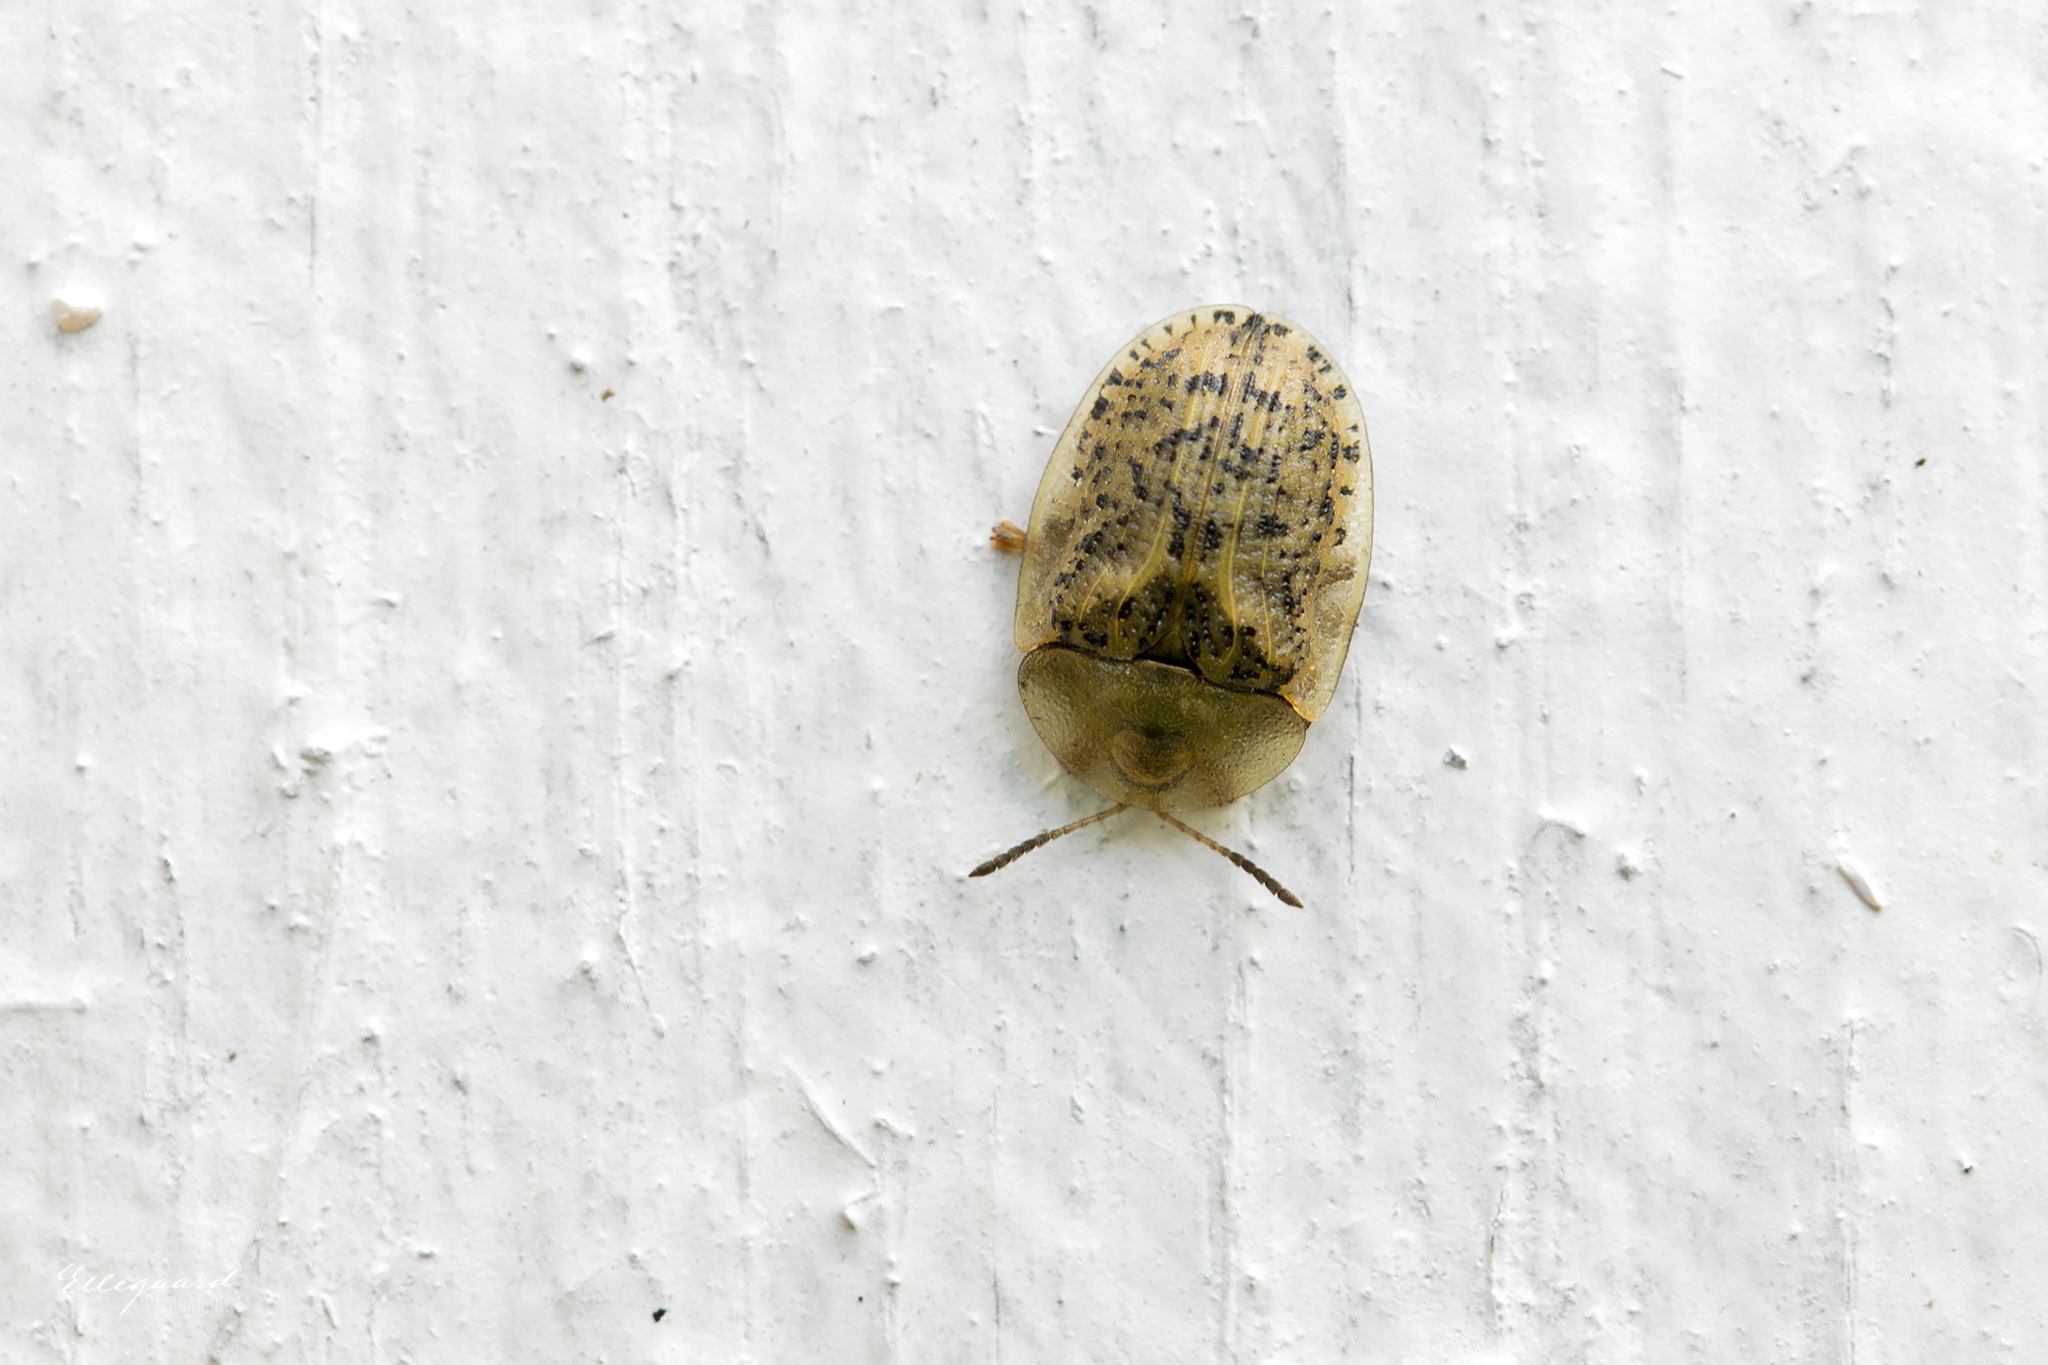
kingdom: Animalia
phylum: Arthropoda
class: Insecta
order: Coleoptera
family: Chrysomelidae
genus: Cassida
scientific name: Cassida nebulosa
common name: Beet tortoise beetle
